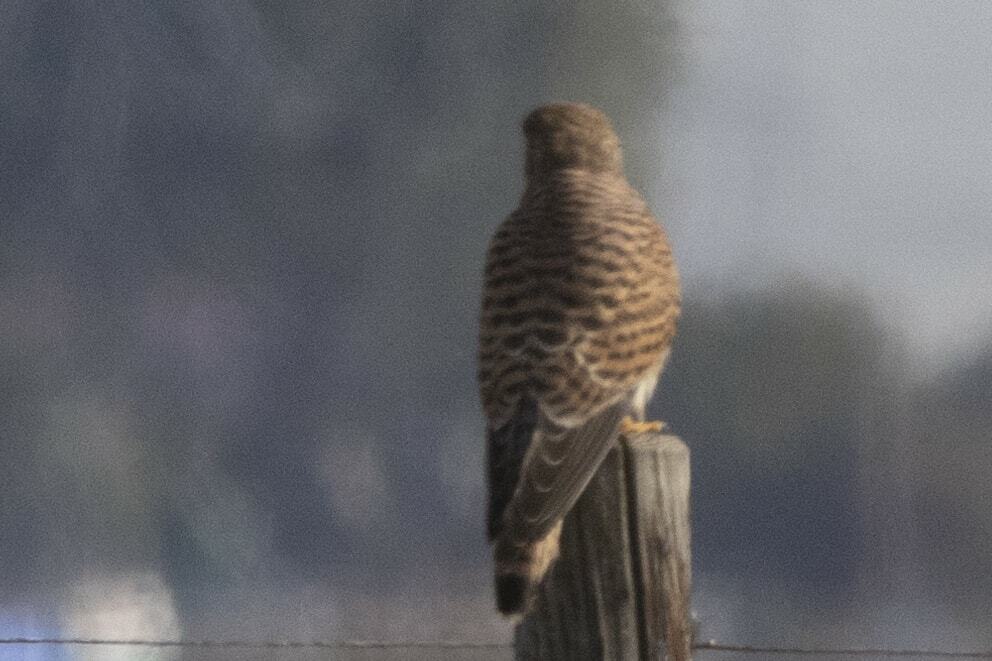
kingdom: Animalia
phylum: Chordata
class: Aves
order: Falconiformes
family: Falconidae
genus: Falco
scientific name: Falco tinnunculus
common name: Common kestrel
